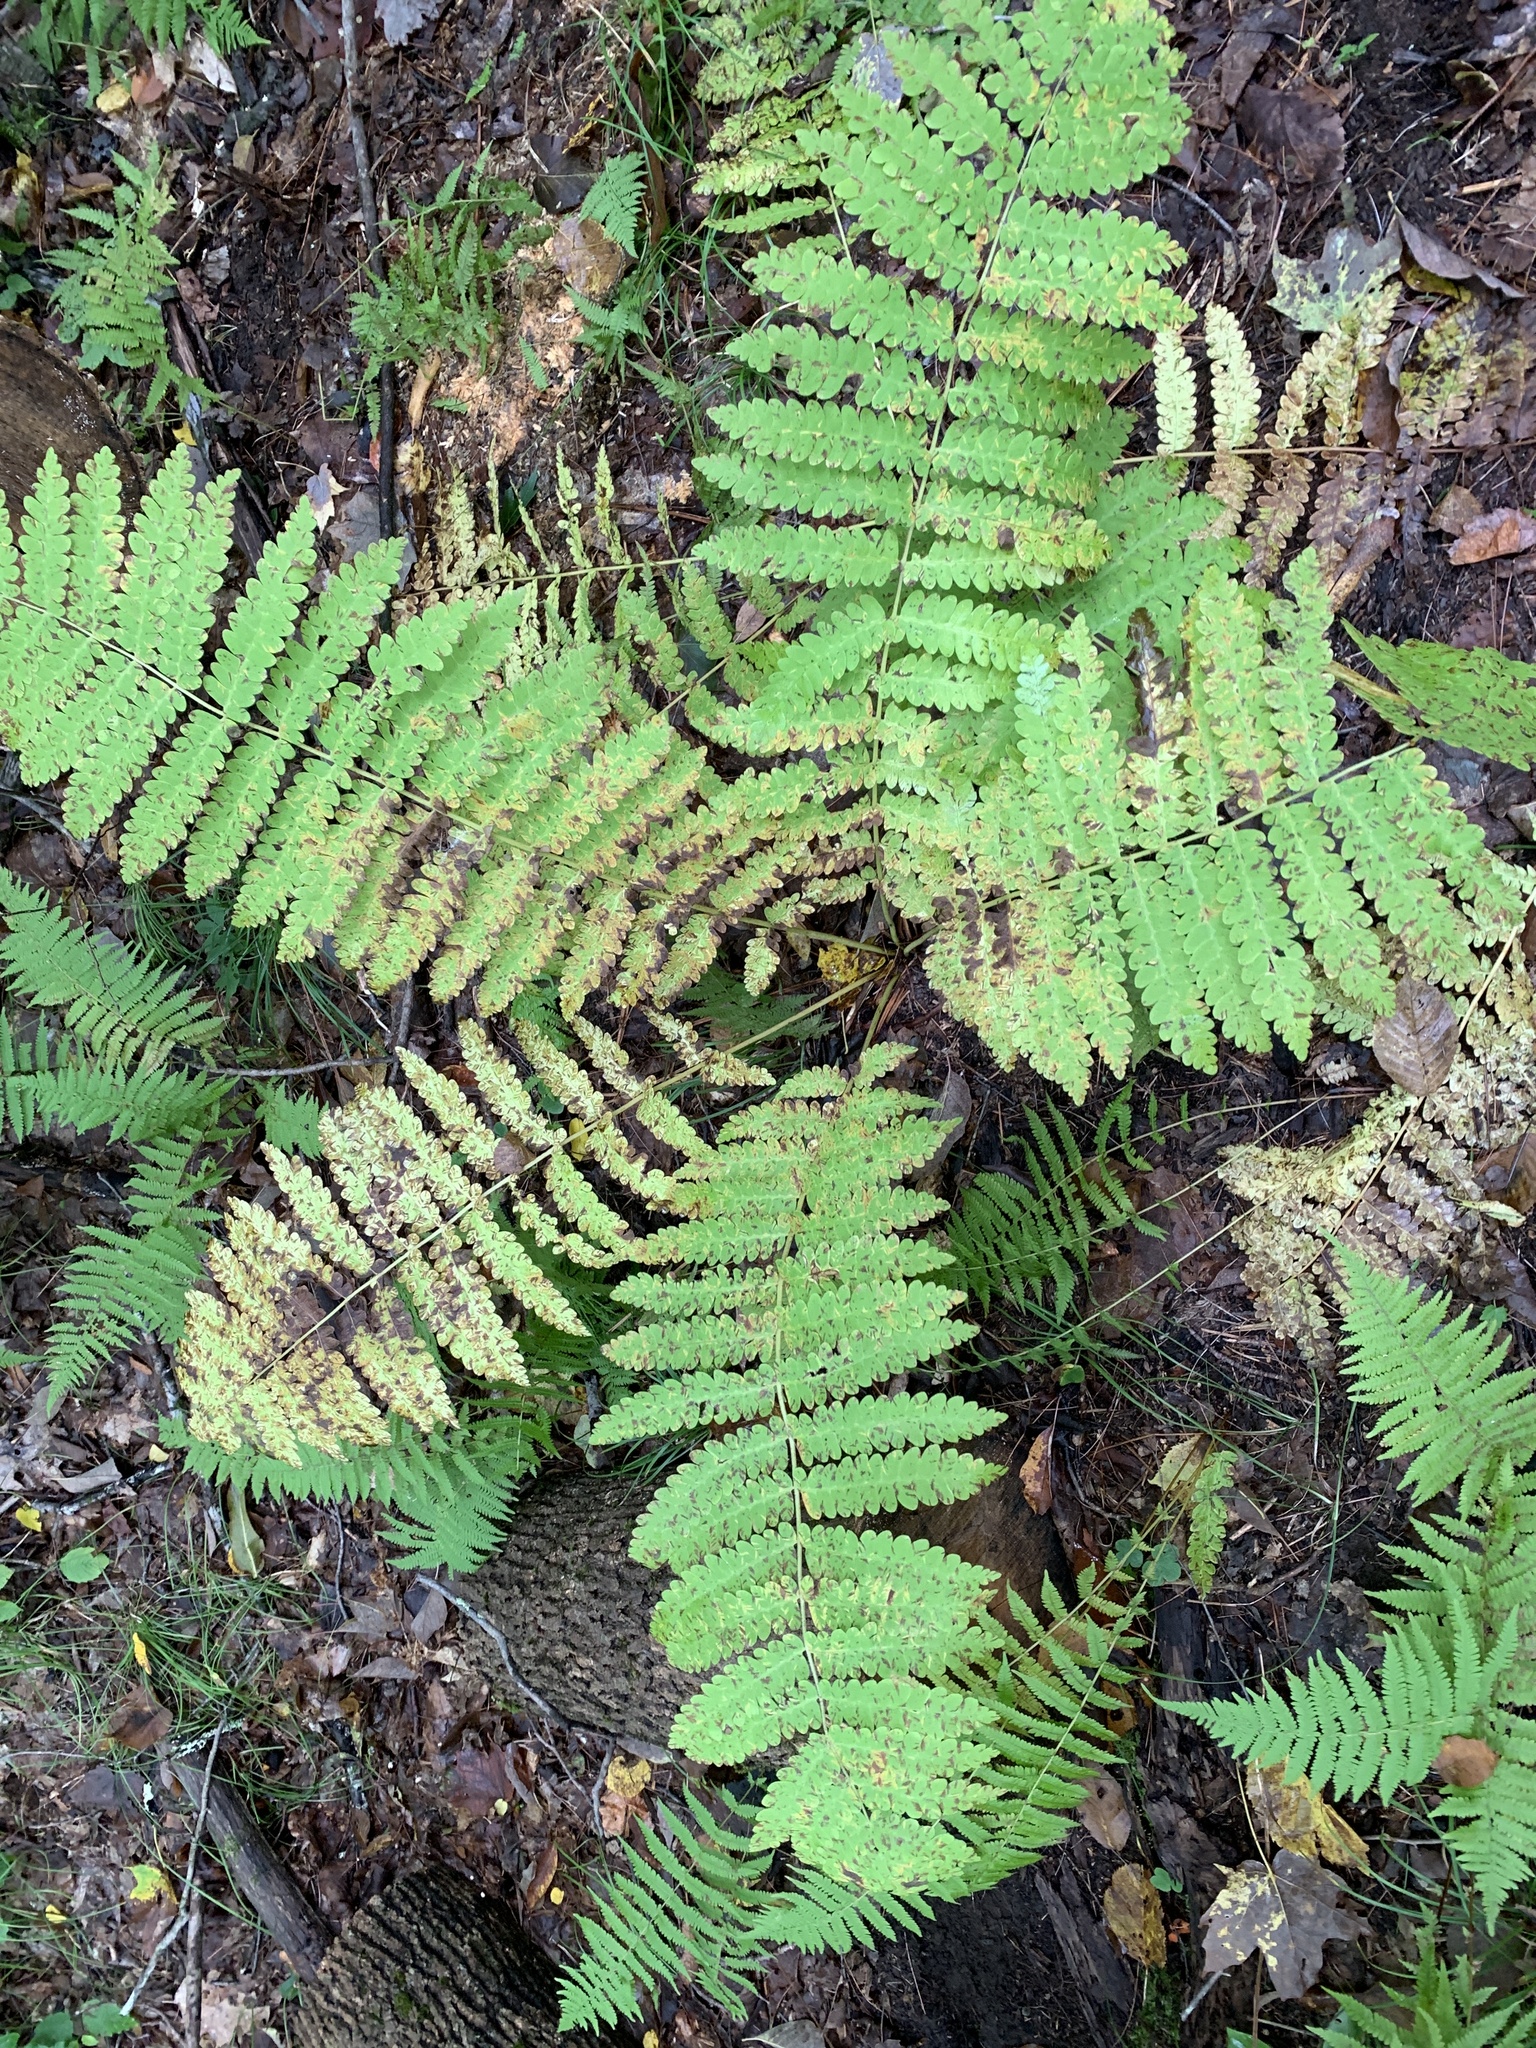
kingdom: Plantae
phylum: Tracheophyta
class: Polypodiopsida
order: Osmundales
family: Osmundaceae
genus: Claytosmunda
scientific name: Claytosmunda claytoniana
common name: Clayton's fern
